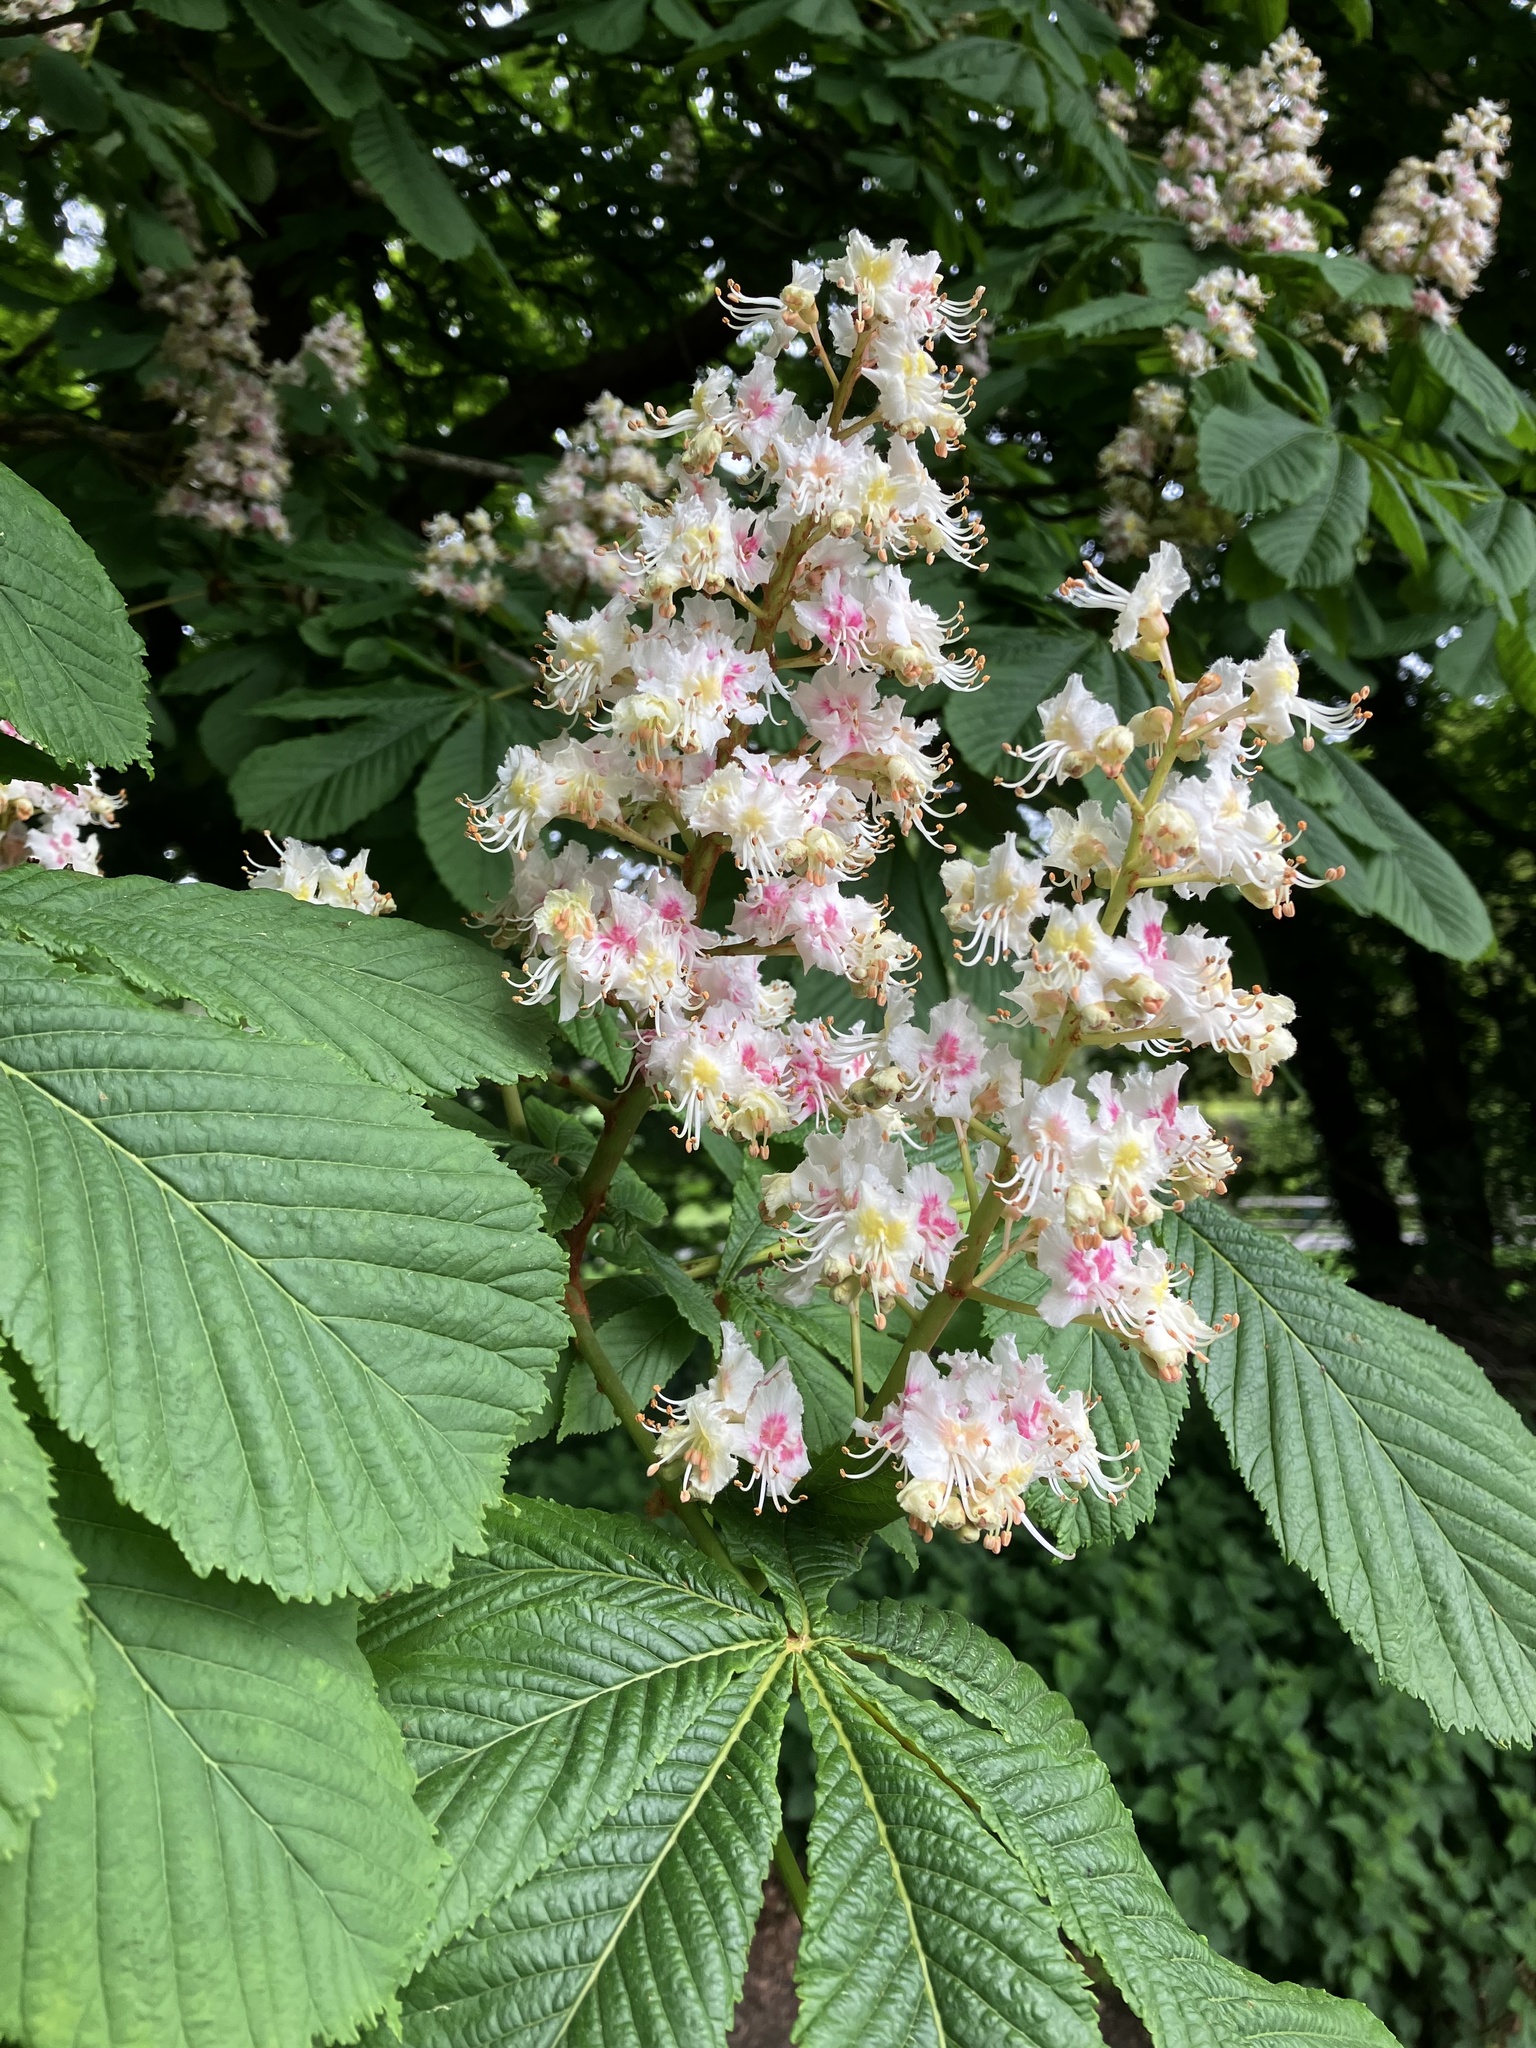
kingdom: Plantae
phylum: Tracheophyta
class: Magnoliopsida
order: Sapindales
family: Sapindaceae
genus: Aesculus
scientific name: Aesculus hippocastanum
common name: Horse-chestnut
